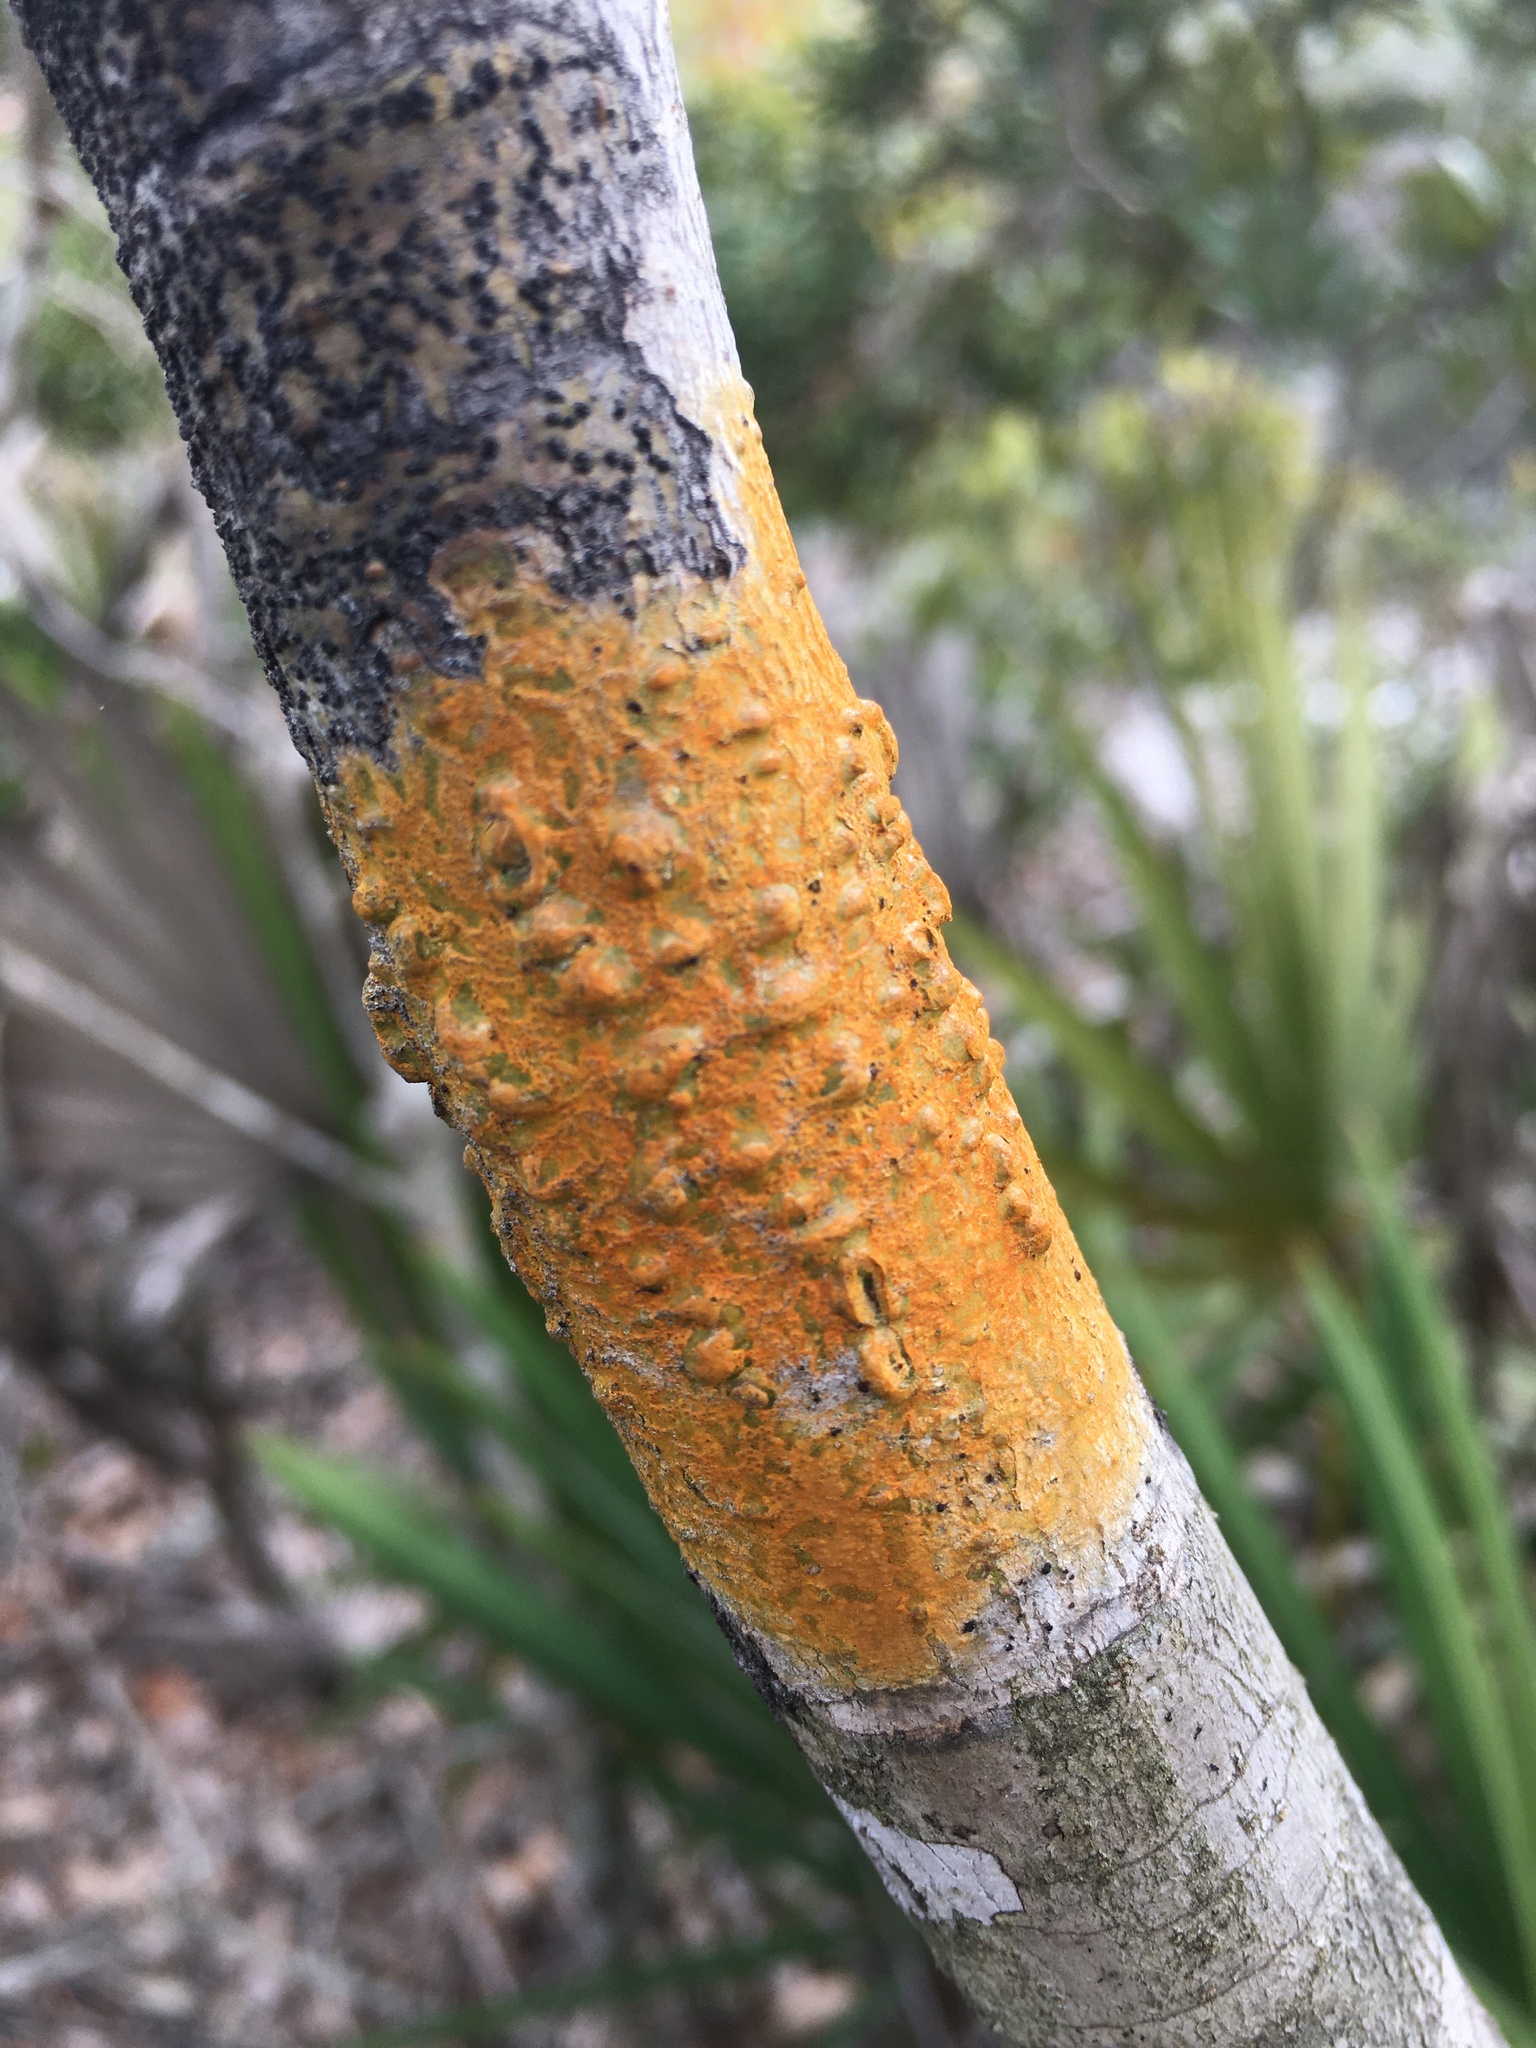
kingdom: Fungi
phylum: Ascomycota
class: Dothideomycetes
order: Trypetheliales
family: Trypetheliaceae
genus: Astrothelium
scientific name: Astrothelium aeneum
